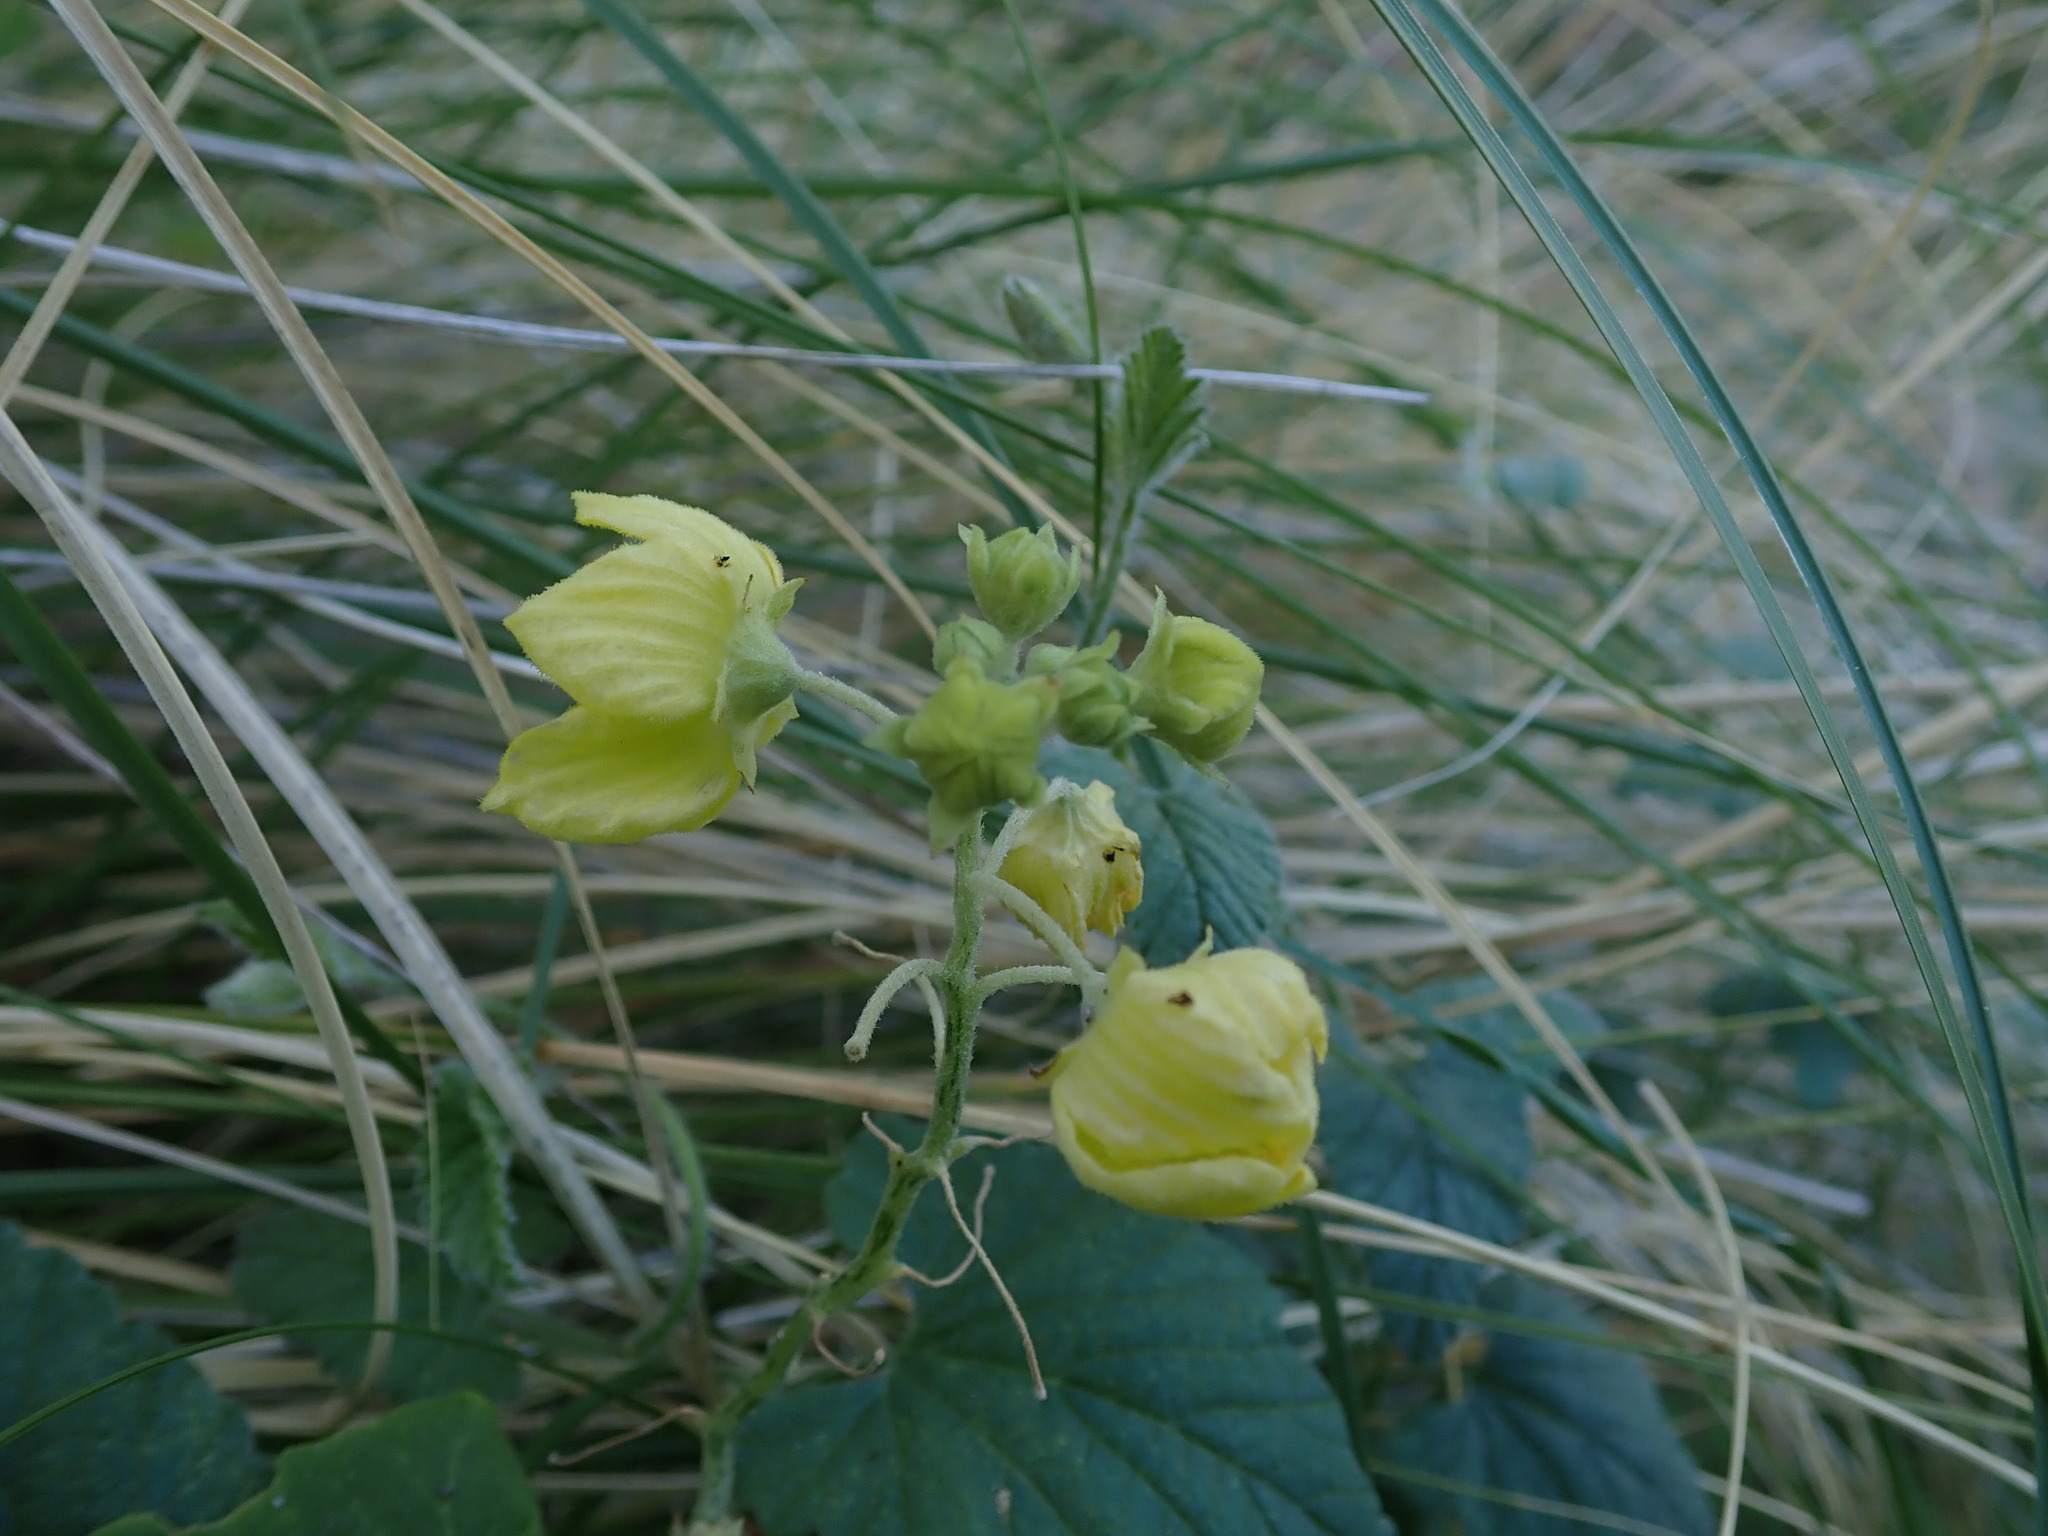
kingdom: Plantae
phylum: Tracheophyta
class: Magnoliopsida
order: Cucurbitales
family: Cucurbitaceae
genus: Bryonia
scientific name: Bryonia verrucosa
